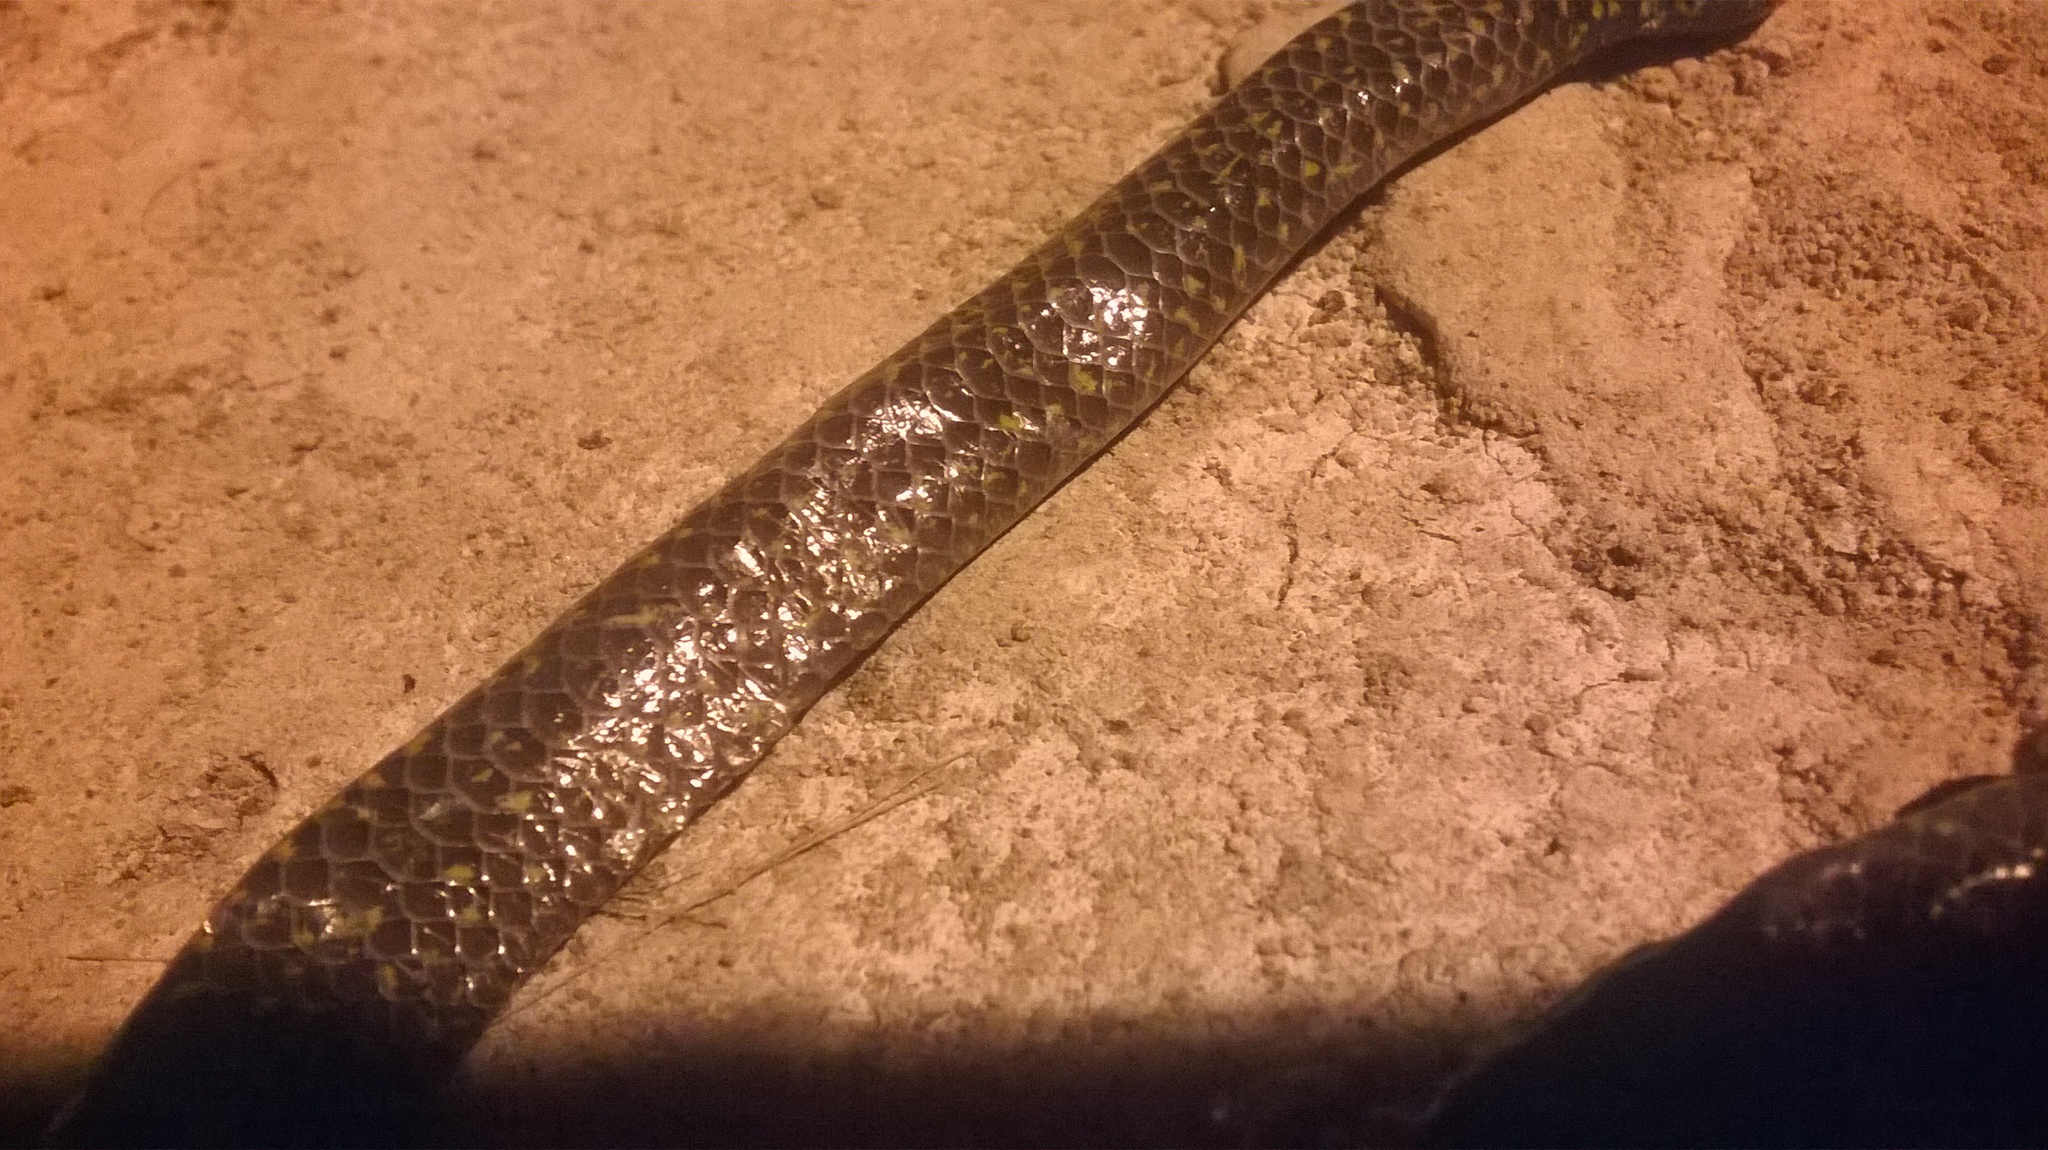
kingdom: Animalia
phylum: Chordata
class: Squamata
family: Uropeltidae
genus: Uropeltis
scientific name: Uropeltis ellioti
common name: Elliot's earth snake
